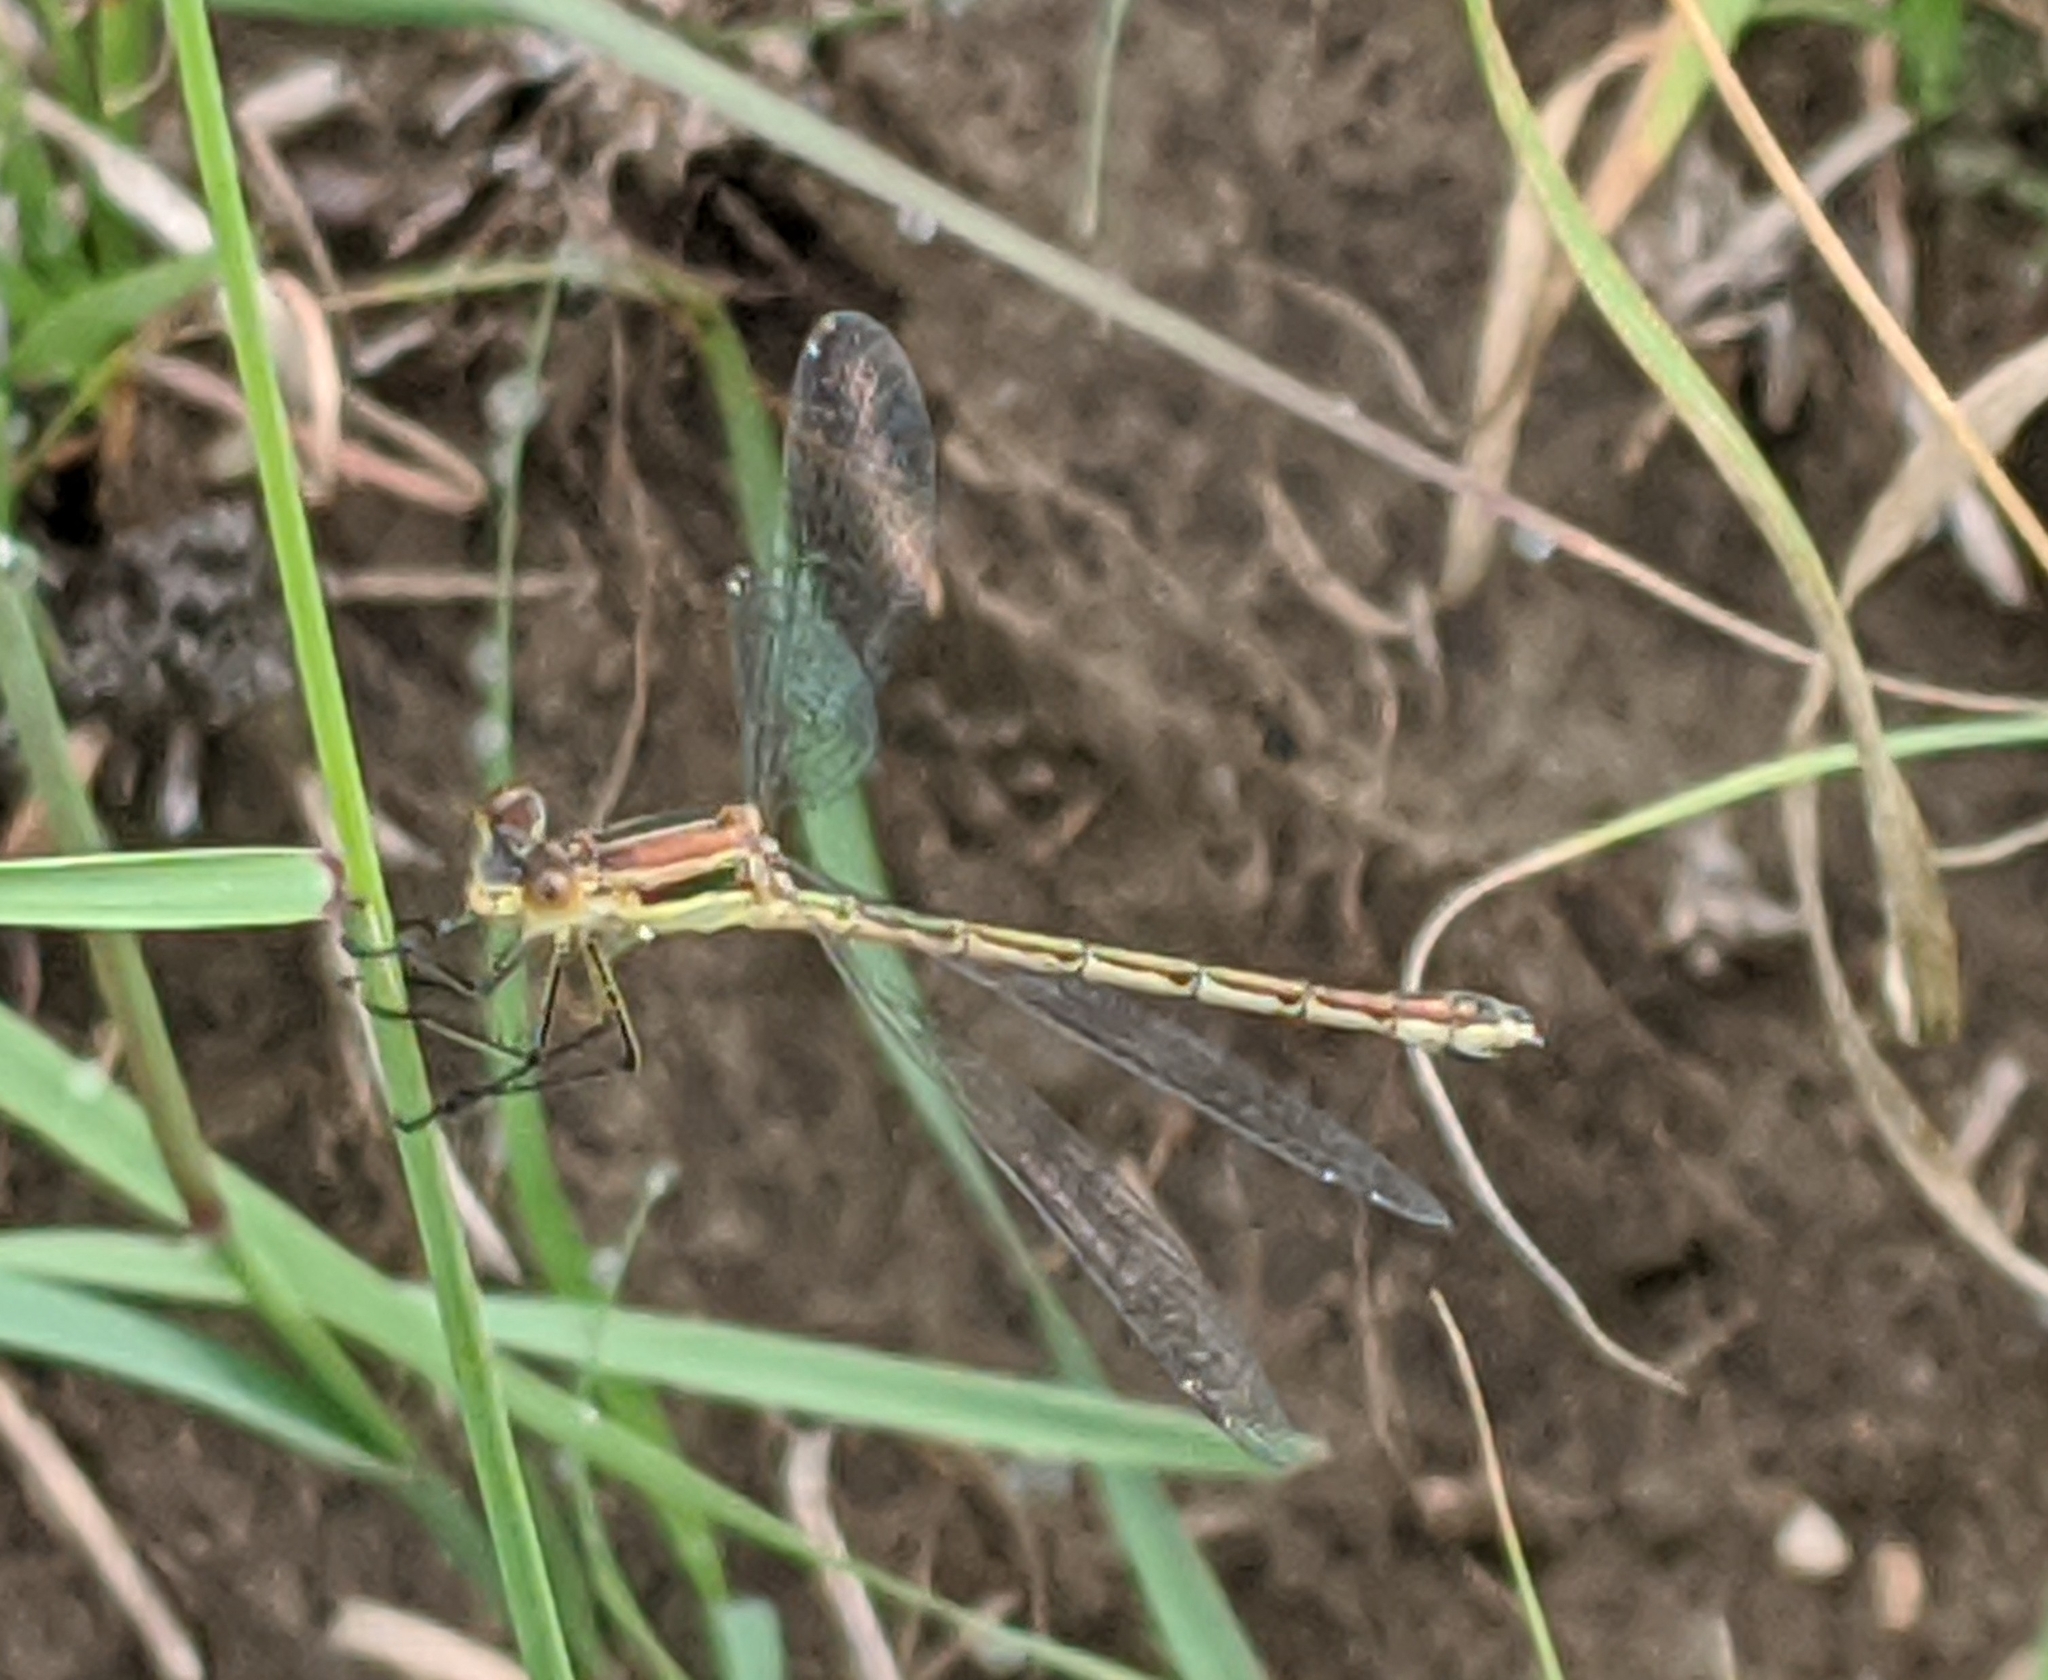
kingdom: Animalia
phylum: Arthropoda
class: Insecta
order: Odonata
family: Lestidae
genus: Lestes
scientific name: Lestes unguiculatus
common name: Lyre-tipped spreadwing
